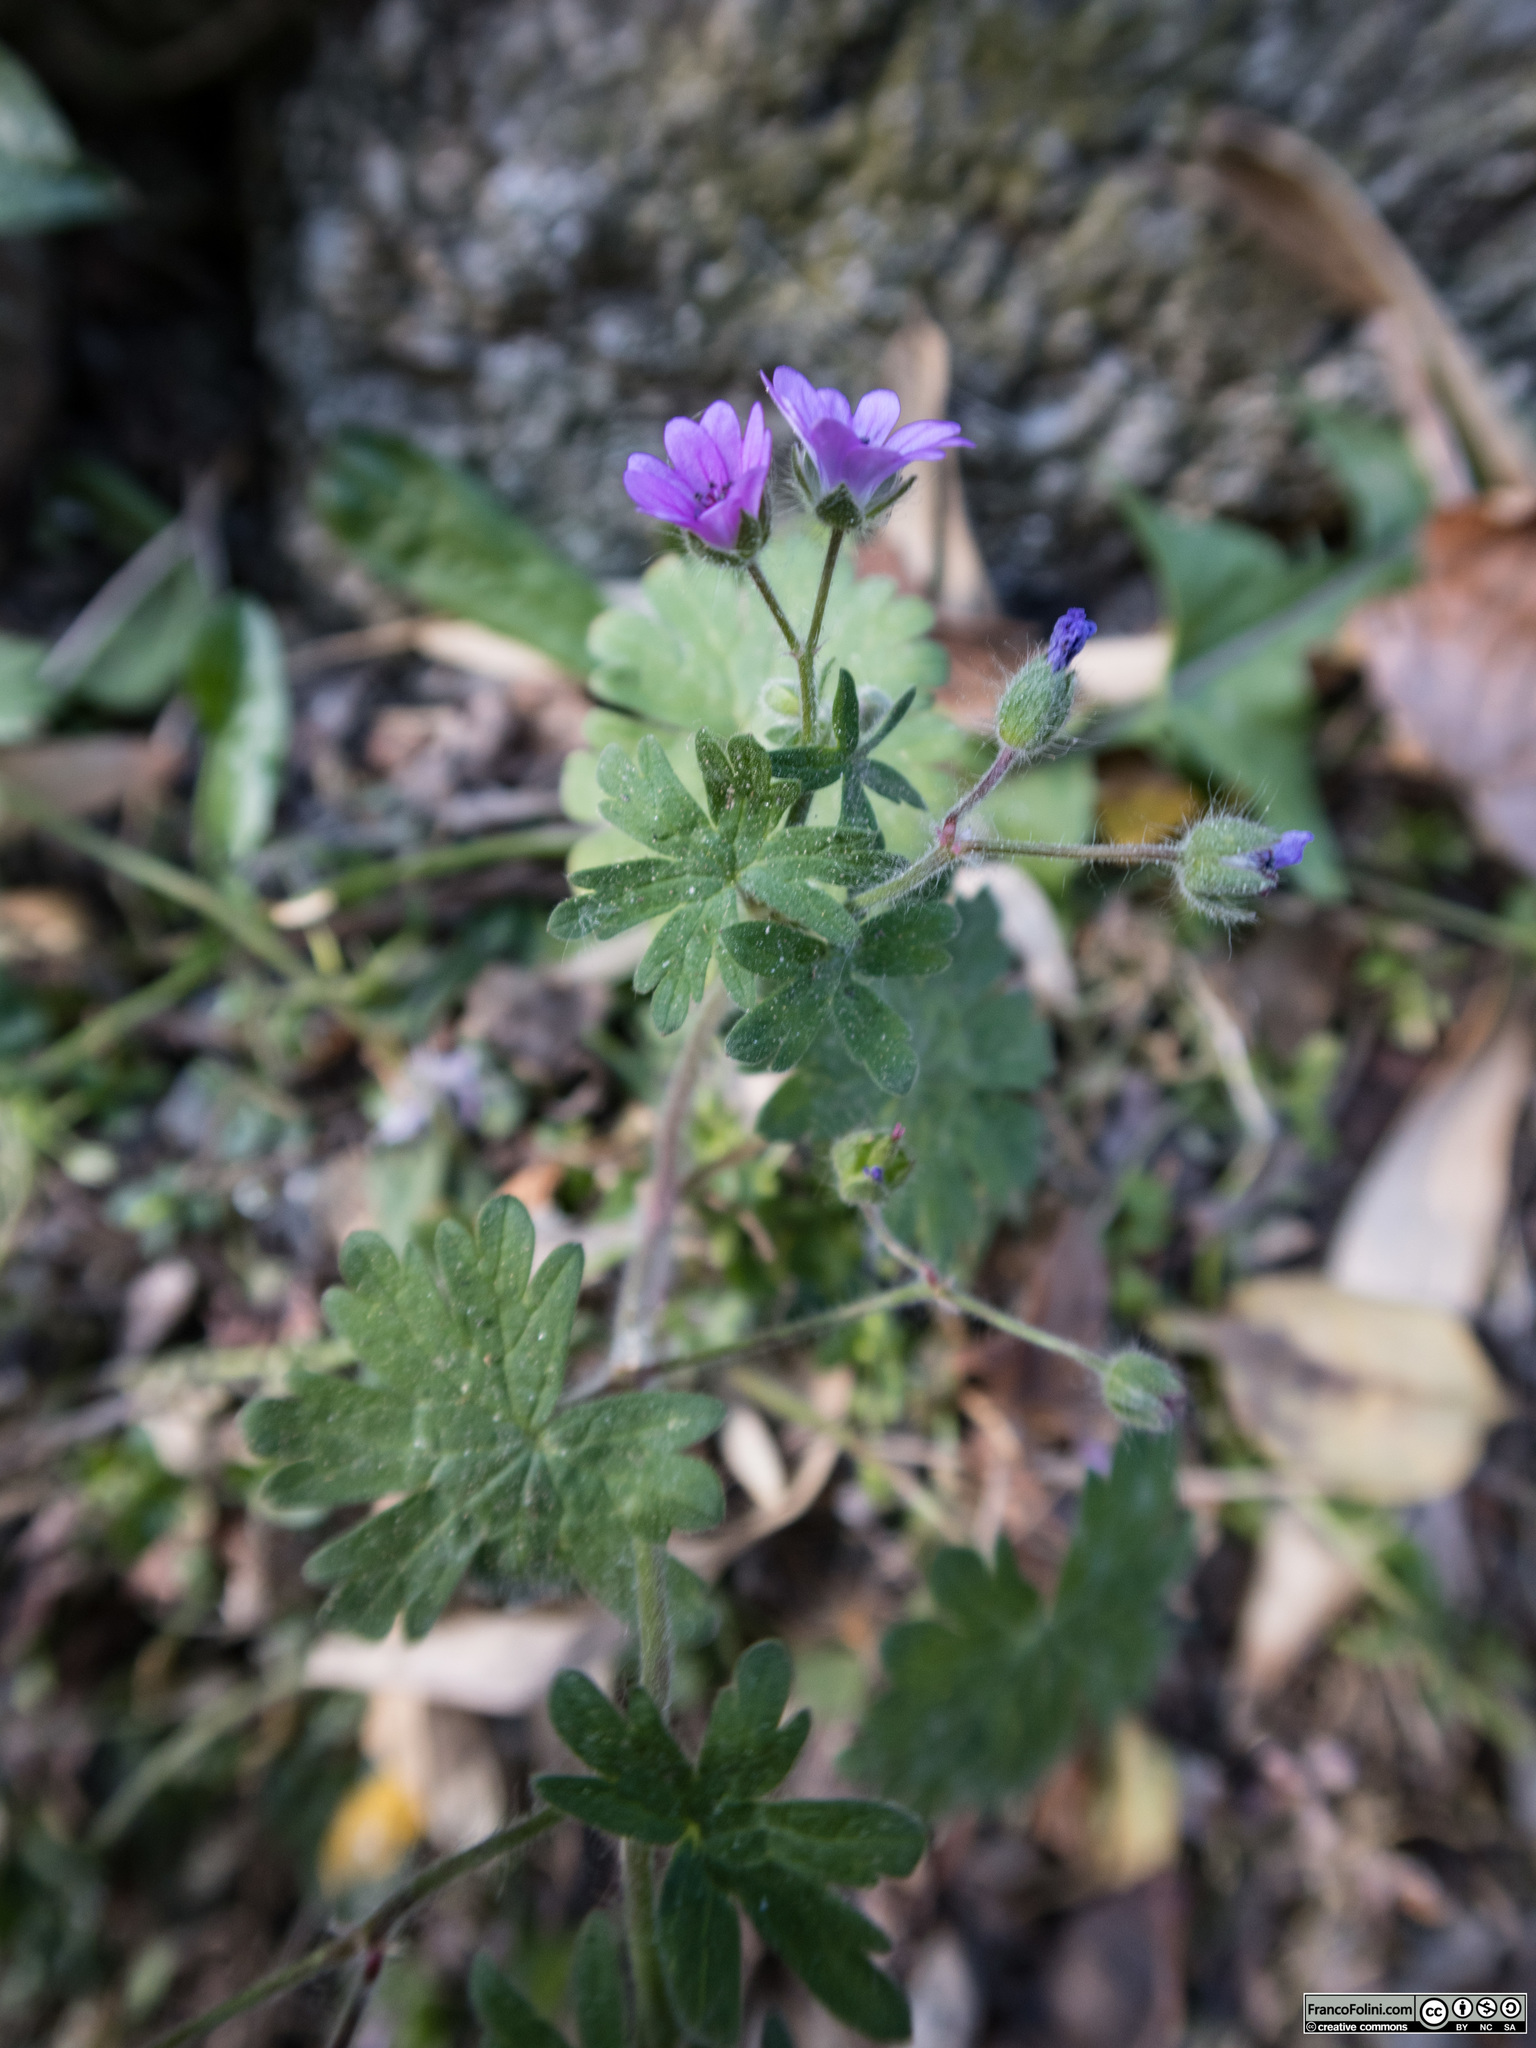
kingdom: Plantae
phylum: Tracheophyta
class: Magnoliopsida
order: Geraniales
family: Geraniaceae
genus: Geranium
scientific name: Geranium molle
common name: Dove's-foot crane's-bill
